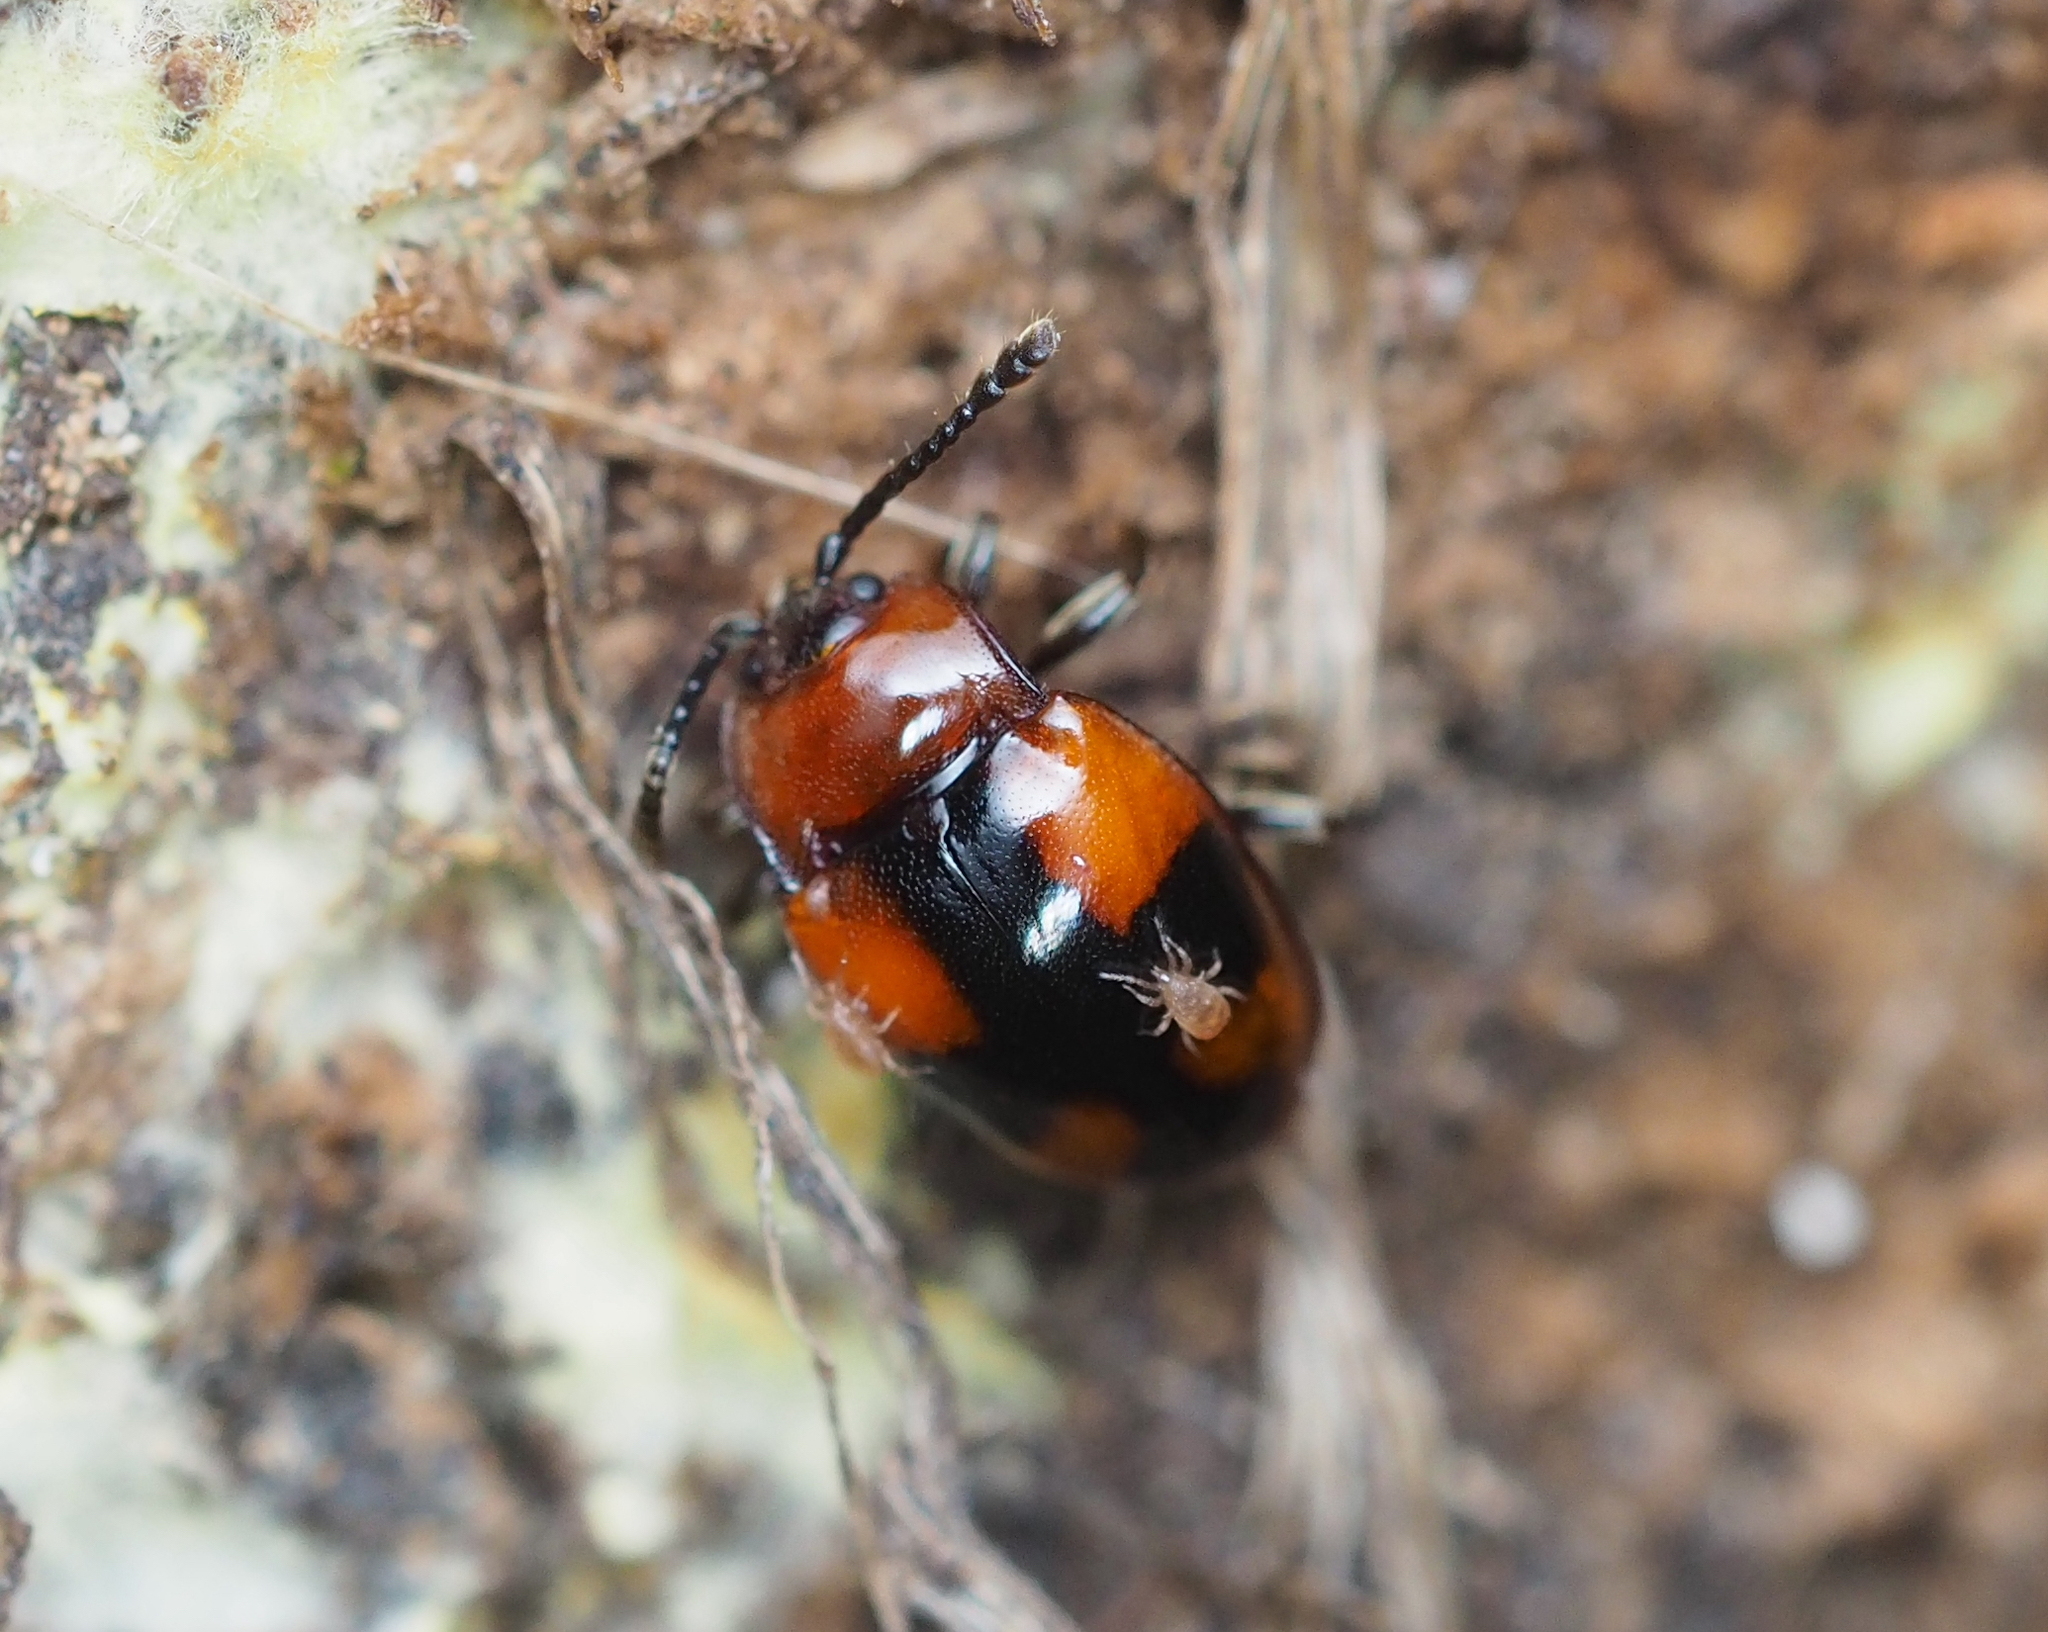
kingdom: Animalia
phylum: Arthropoda
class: Insecta
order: Coleoptera
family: Endomychidae
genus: Mycetina
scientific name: Mycetina cruciata
